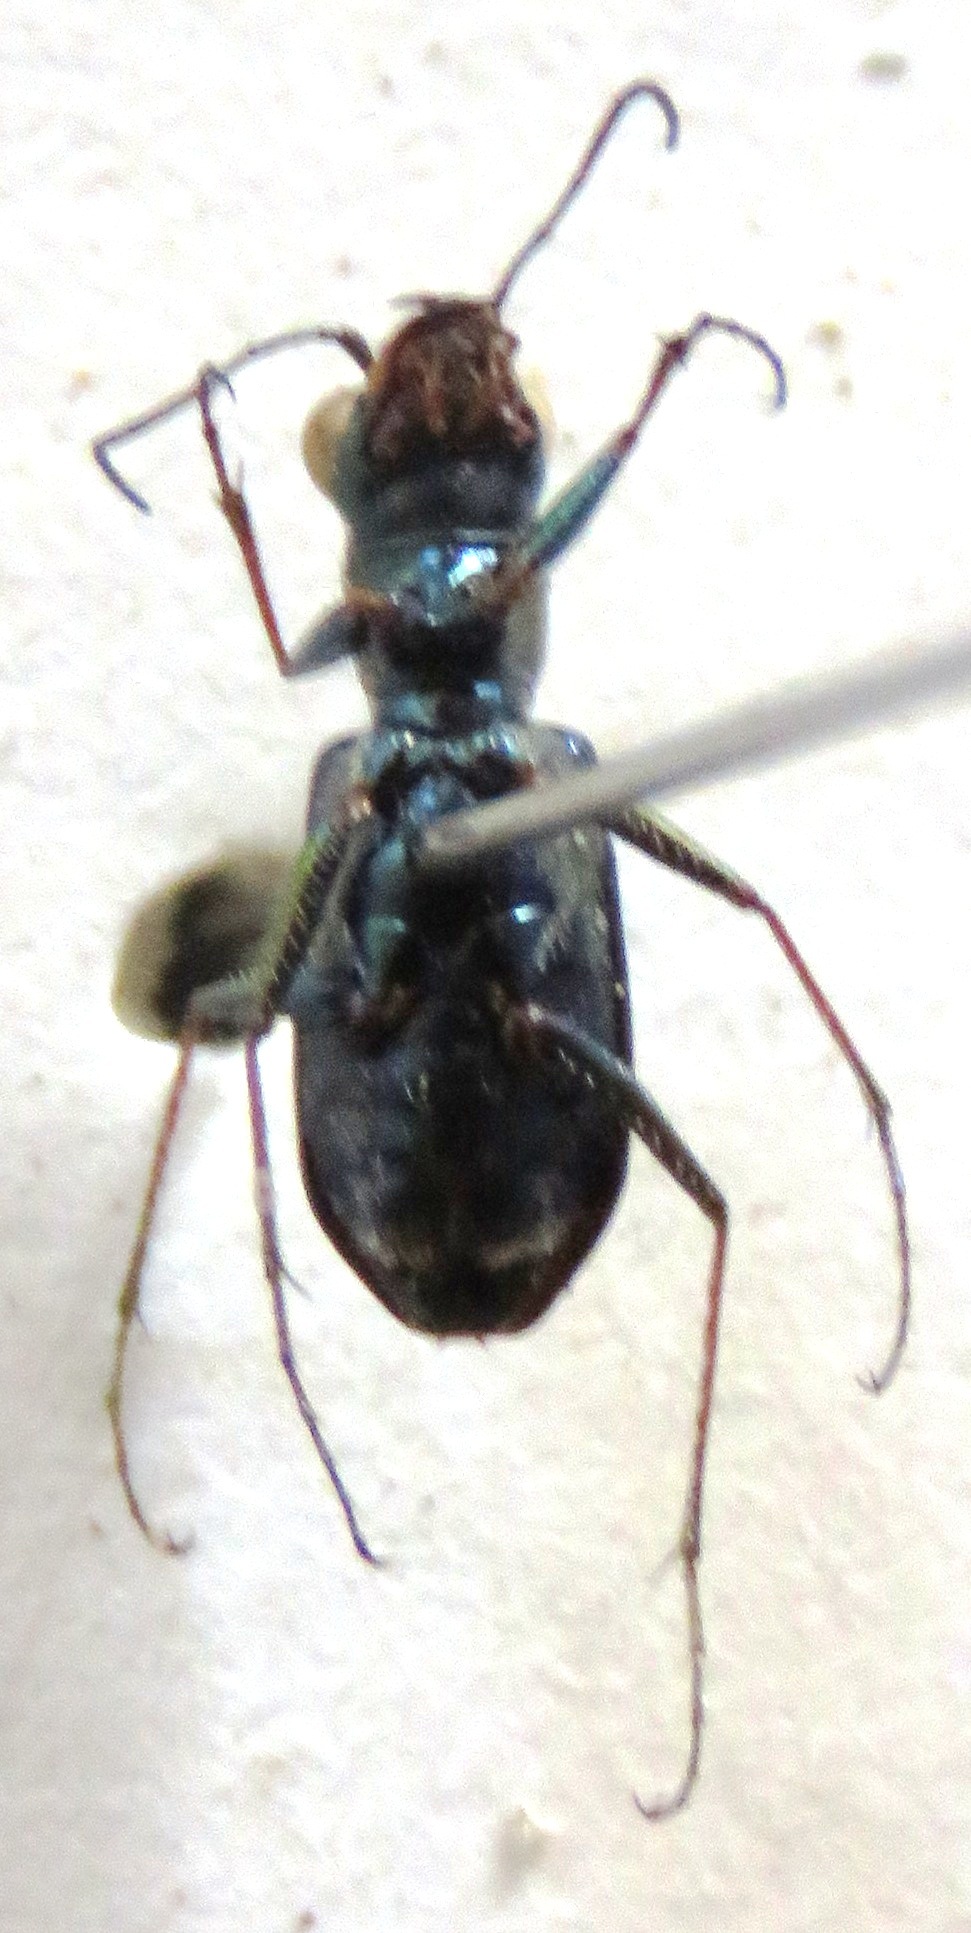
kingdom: Animalia
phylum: Arthropoda
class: Insecta
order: Coleoptera
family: Carabidae
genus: Brasiella
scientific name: Brasiella argentata
